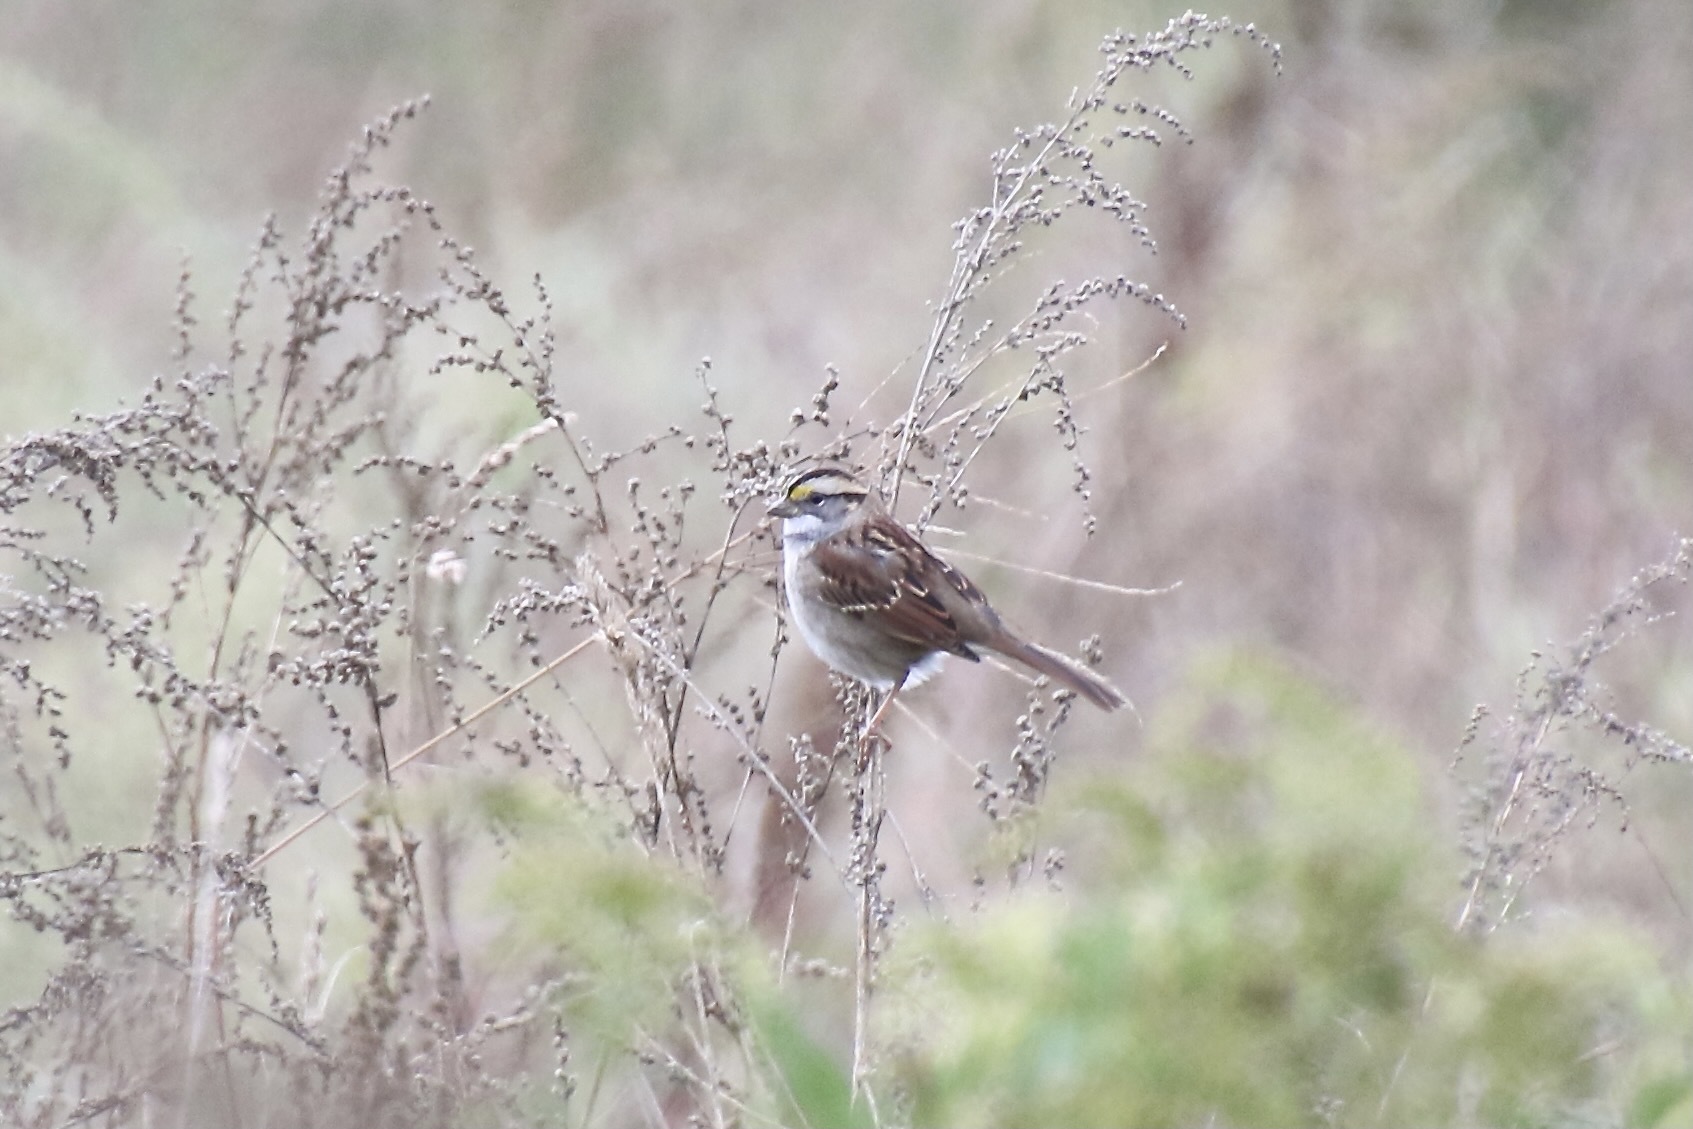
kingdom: Animalia
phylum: Chordata
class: Aves
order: Passeriformes
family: Passerellidae
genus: Zonotrichia
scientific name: Zonotrichia albicollis
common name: White-throated sparrow
